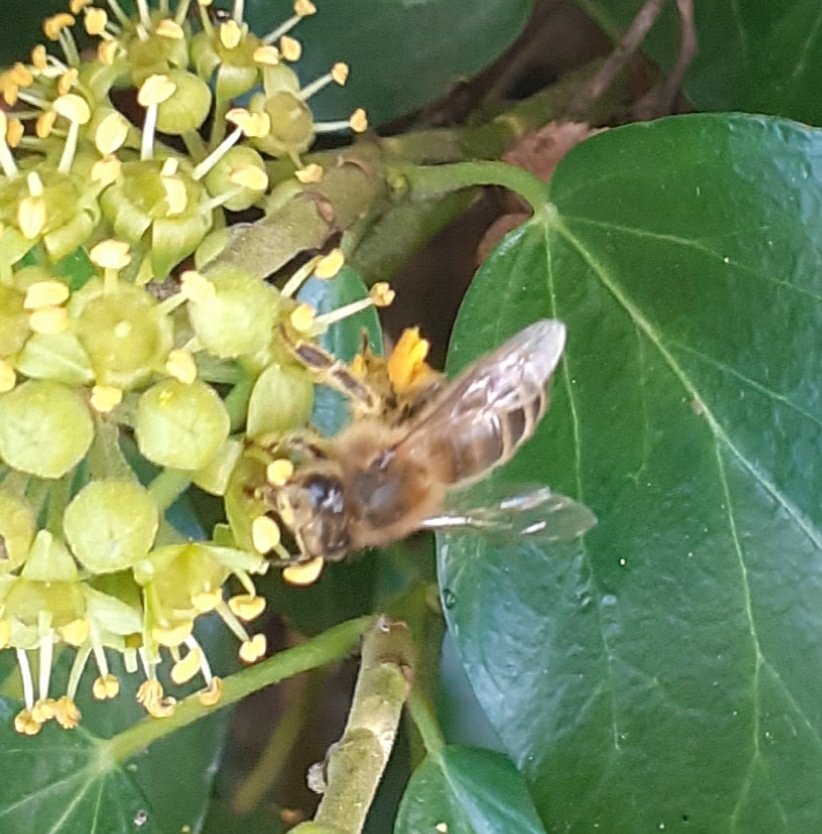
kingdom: Animalia
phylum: Arthropoda
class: Insecta
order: Hymenoptera
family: Apidae
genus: Apis
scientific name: Apis mellifera
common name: Honey bee
